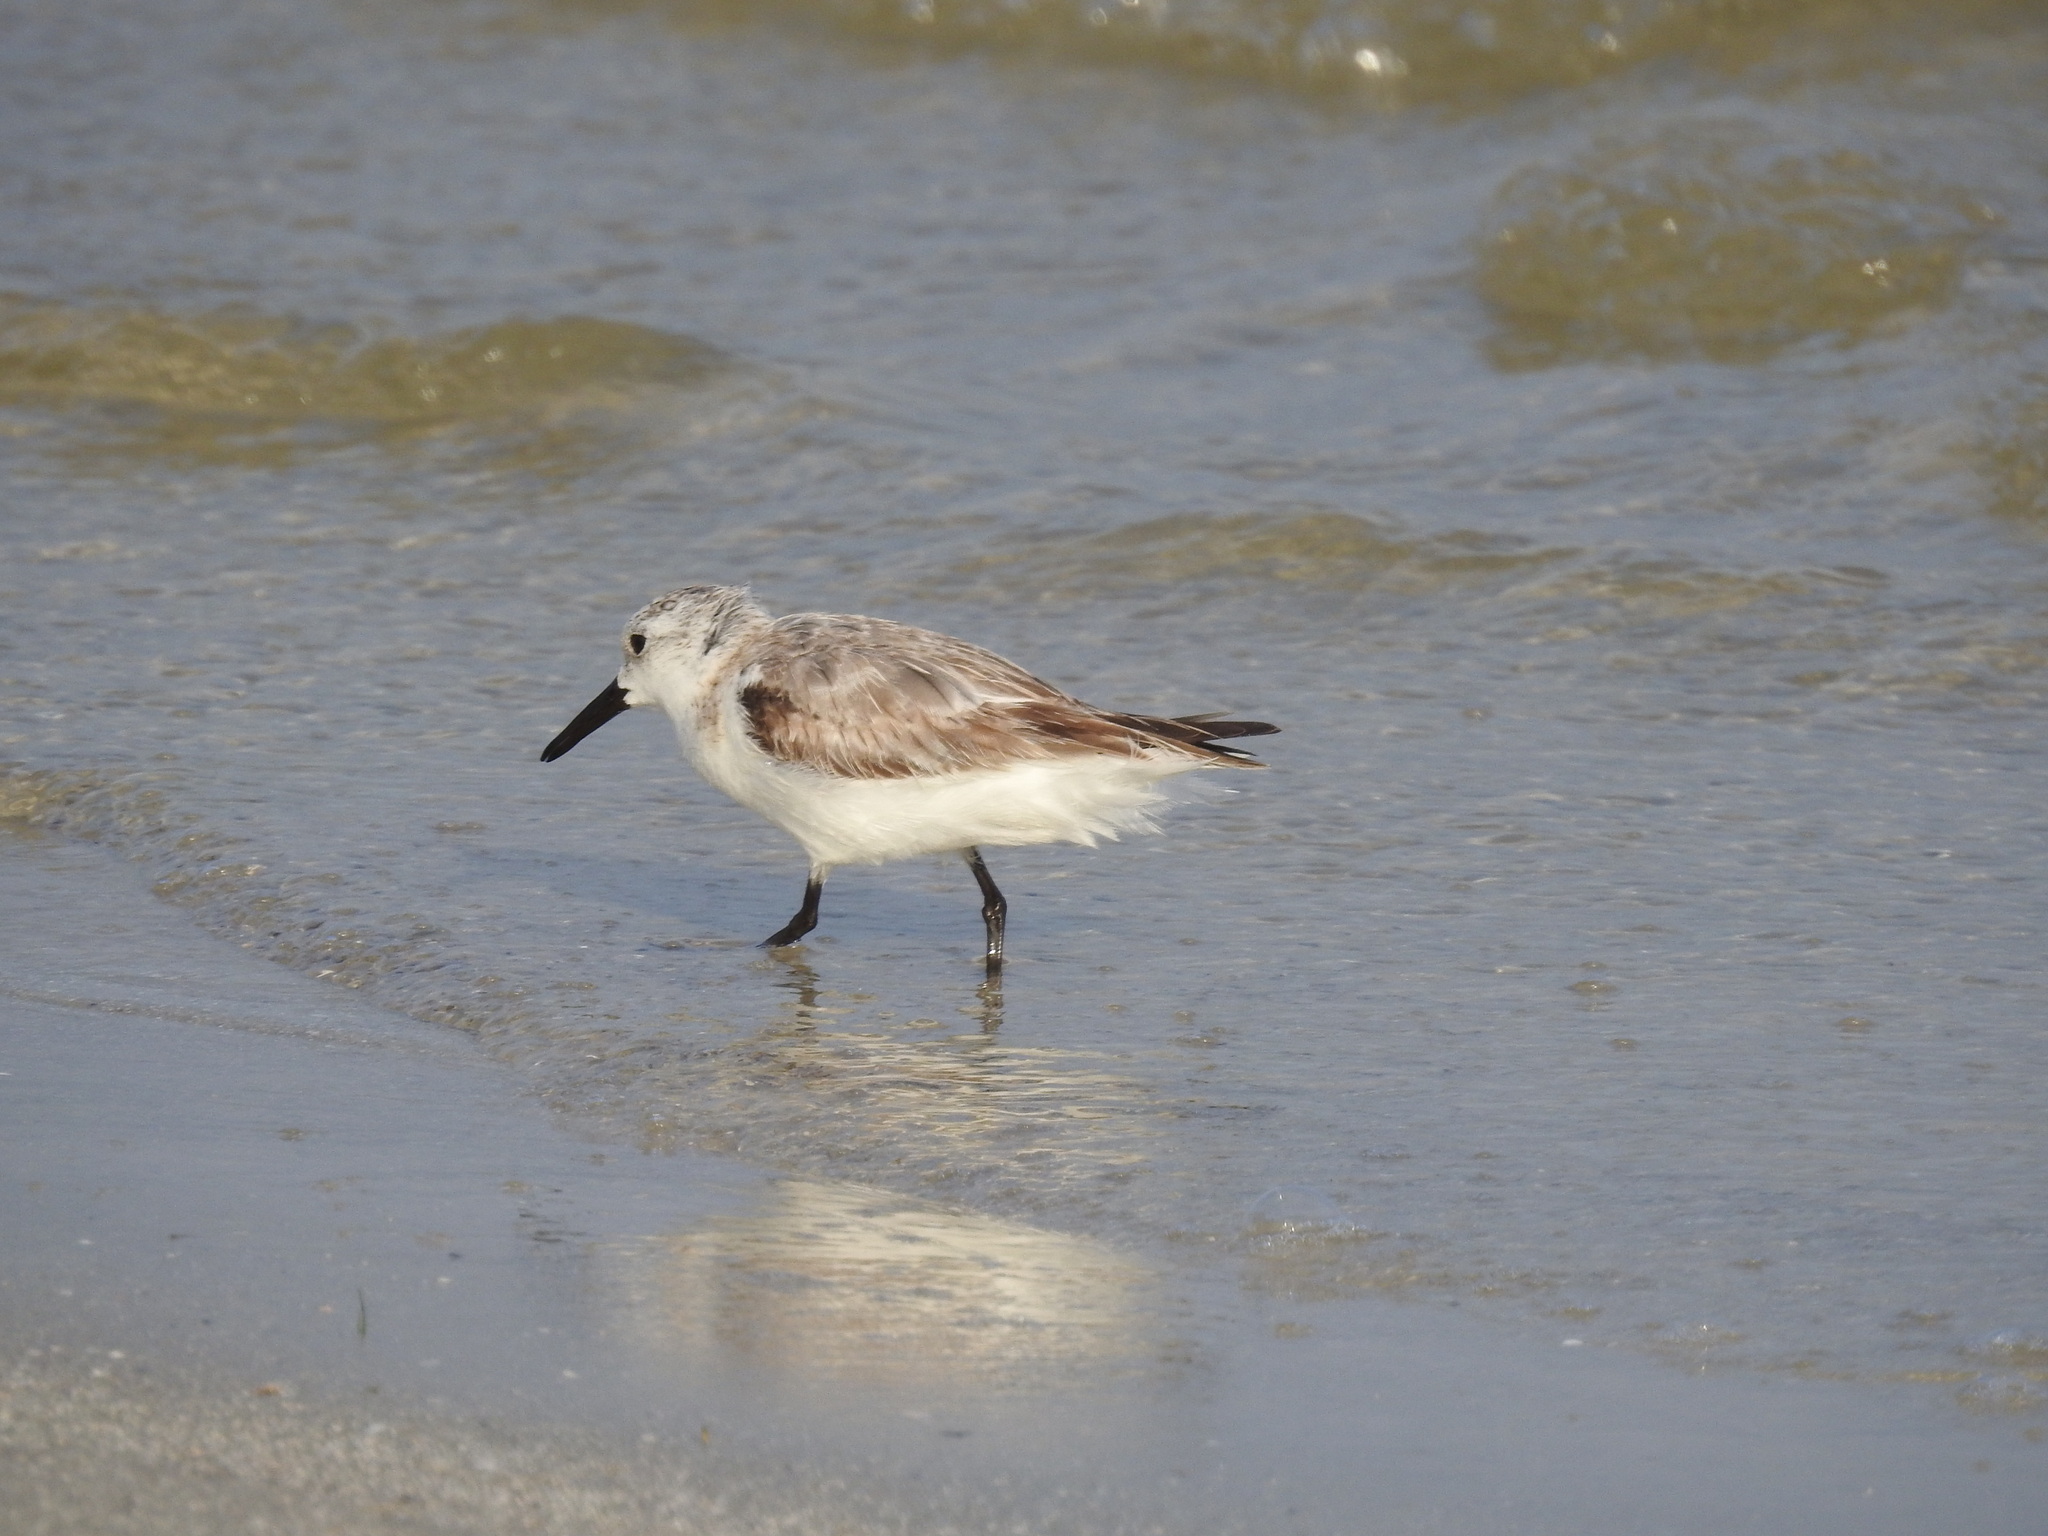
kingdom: Animalia
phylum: Chordata
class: Aves
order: Charadriiformes
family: Scolopacidae
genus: Calidris
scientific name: Calidris alba
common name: Sanderling
